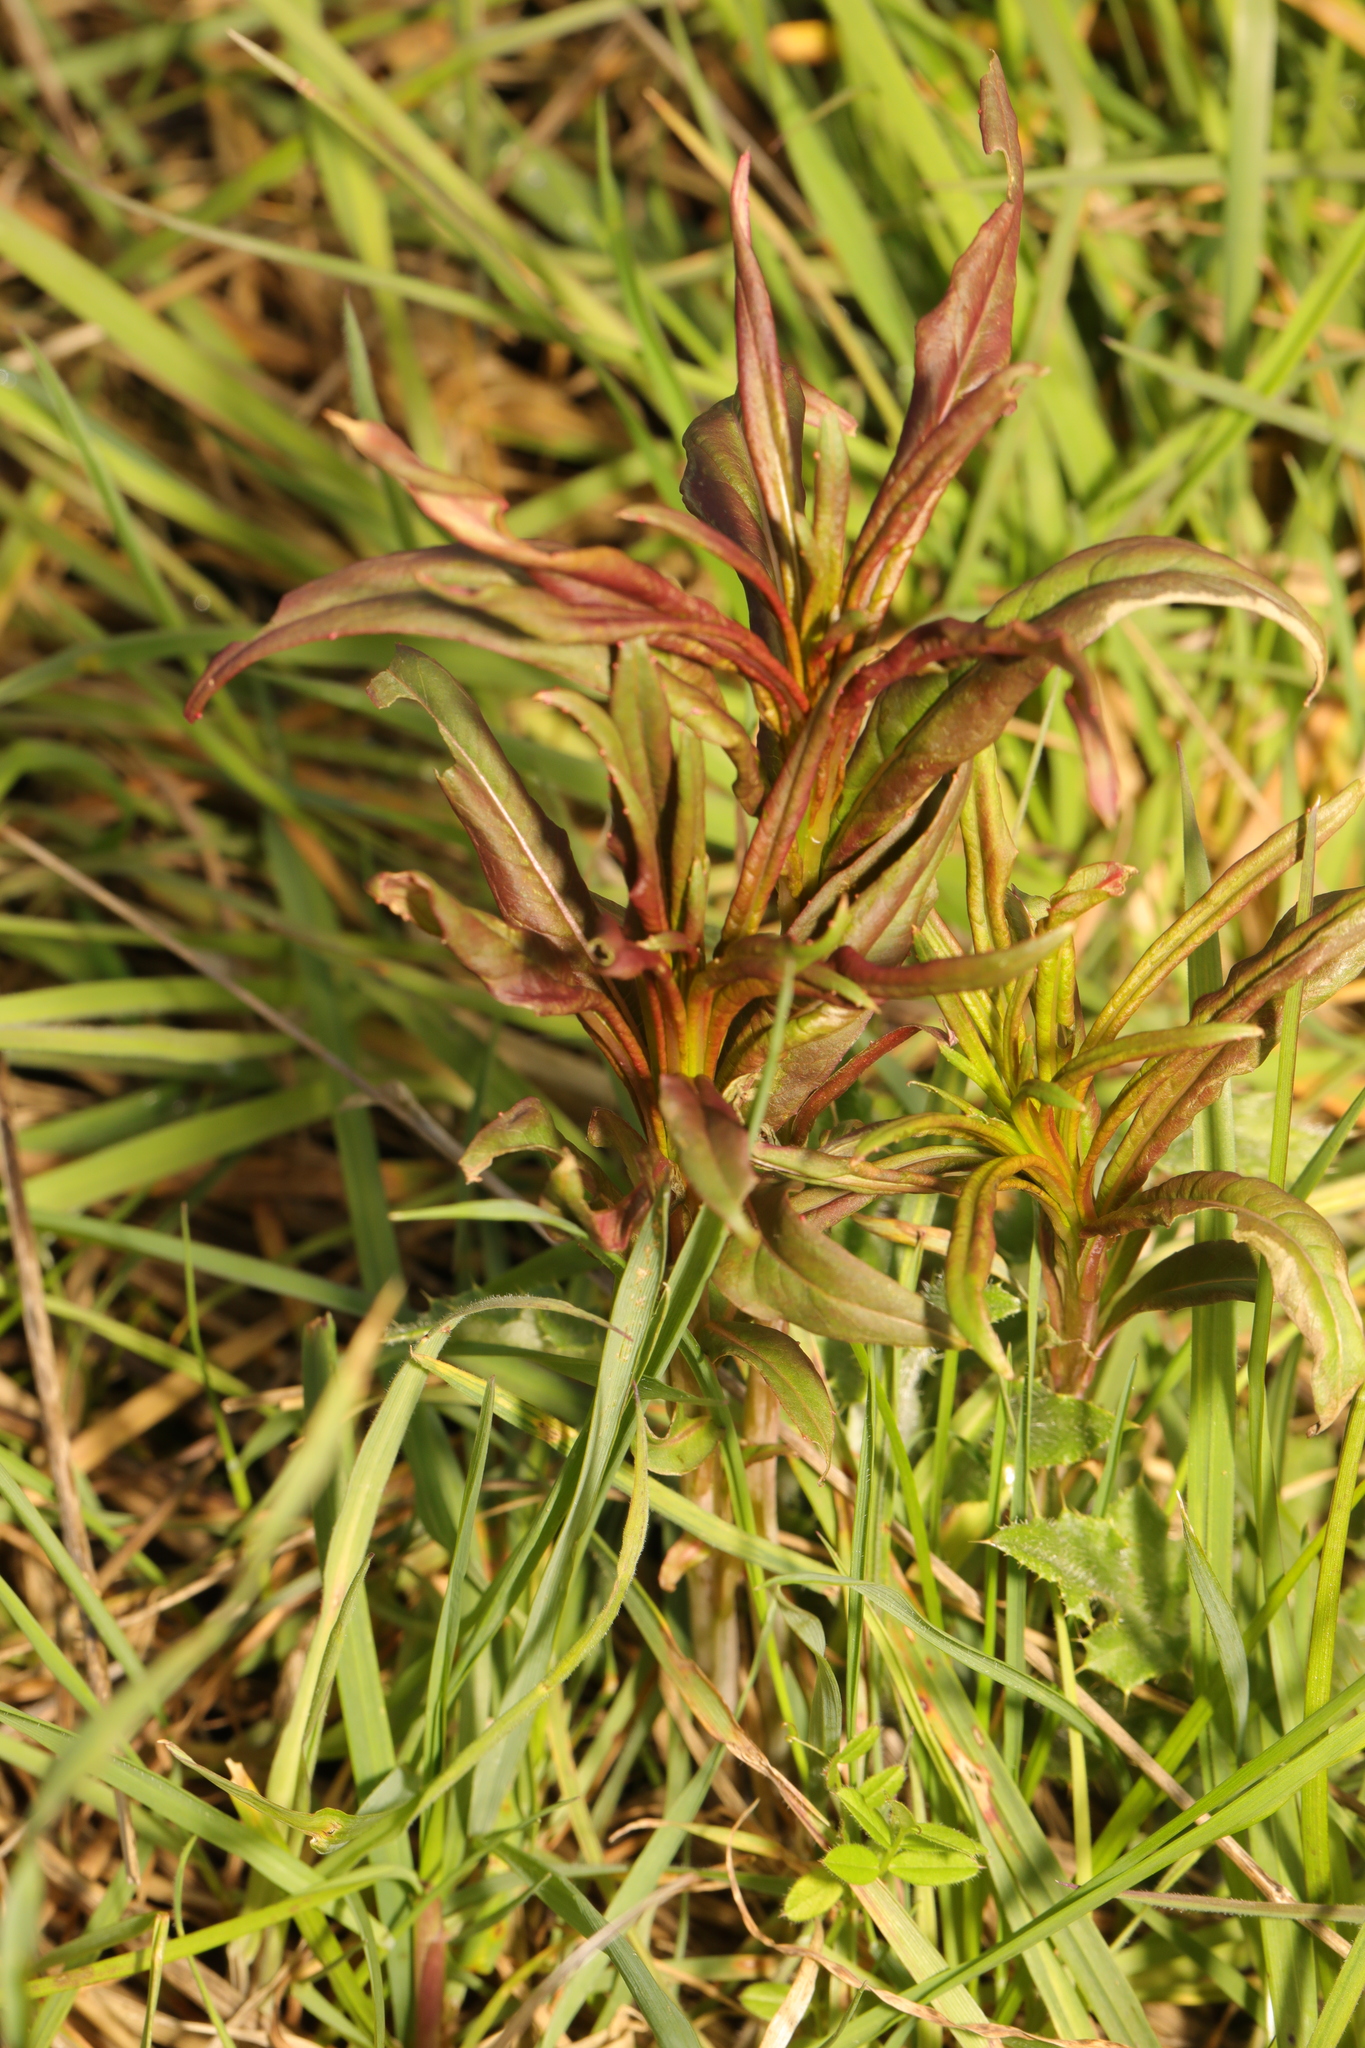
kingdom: Plantae
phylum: Tracheophyta
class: Magnoliopsida
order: Myrtales
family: Onagraceae
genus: Chamaenerion
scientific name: Chamaenerion angustifolium
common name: Fireweed
